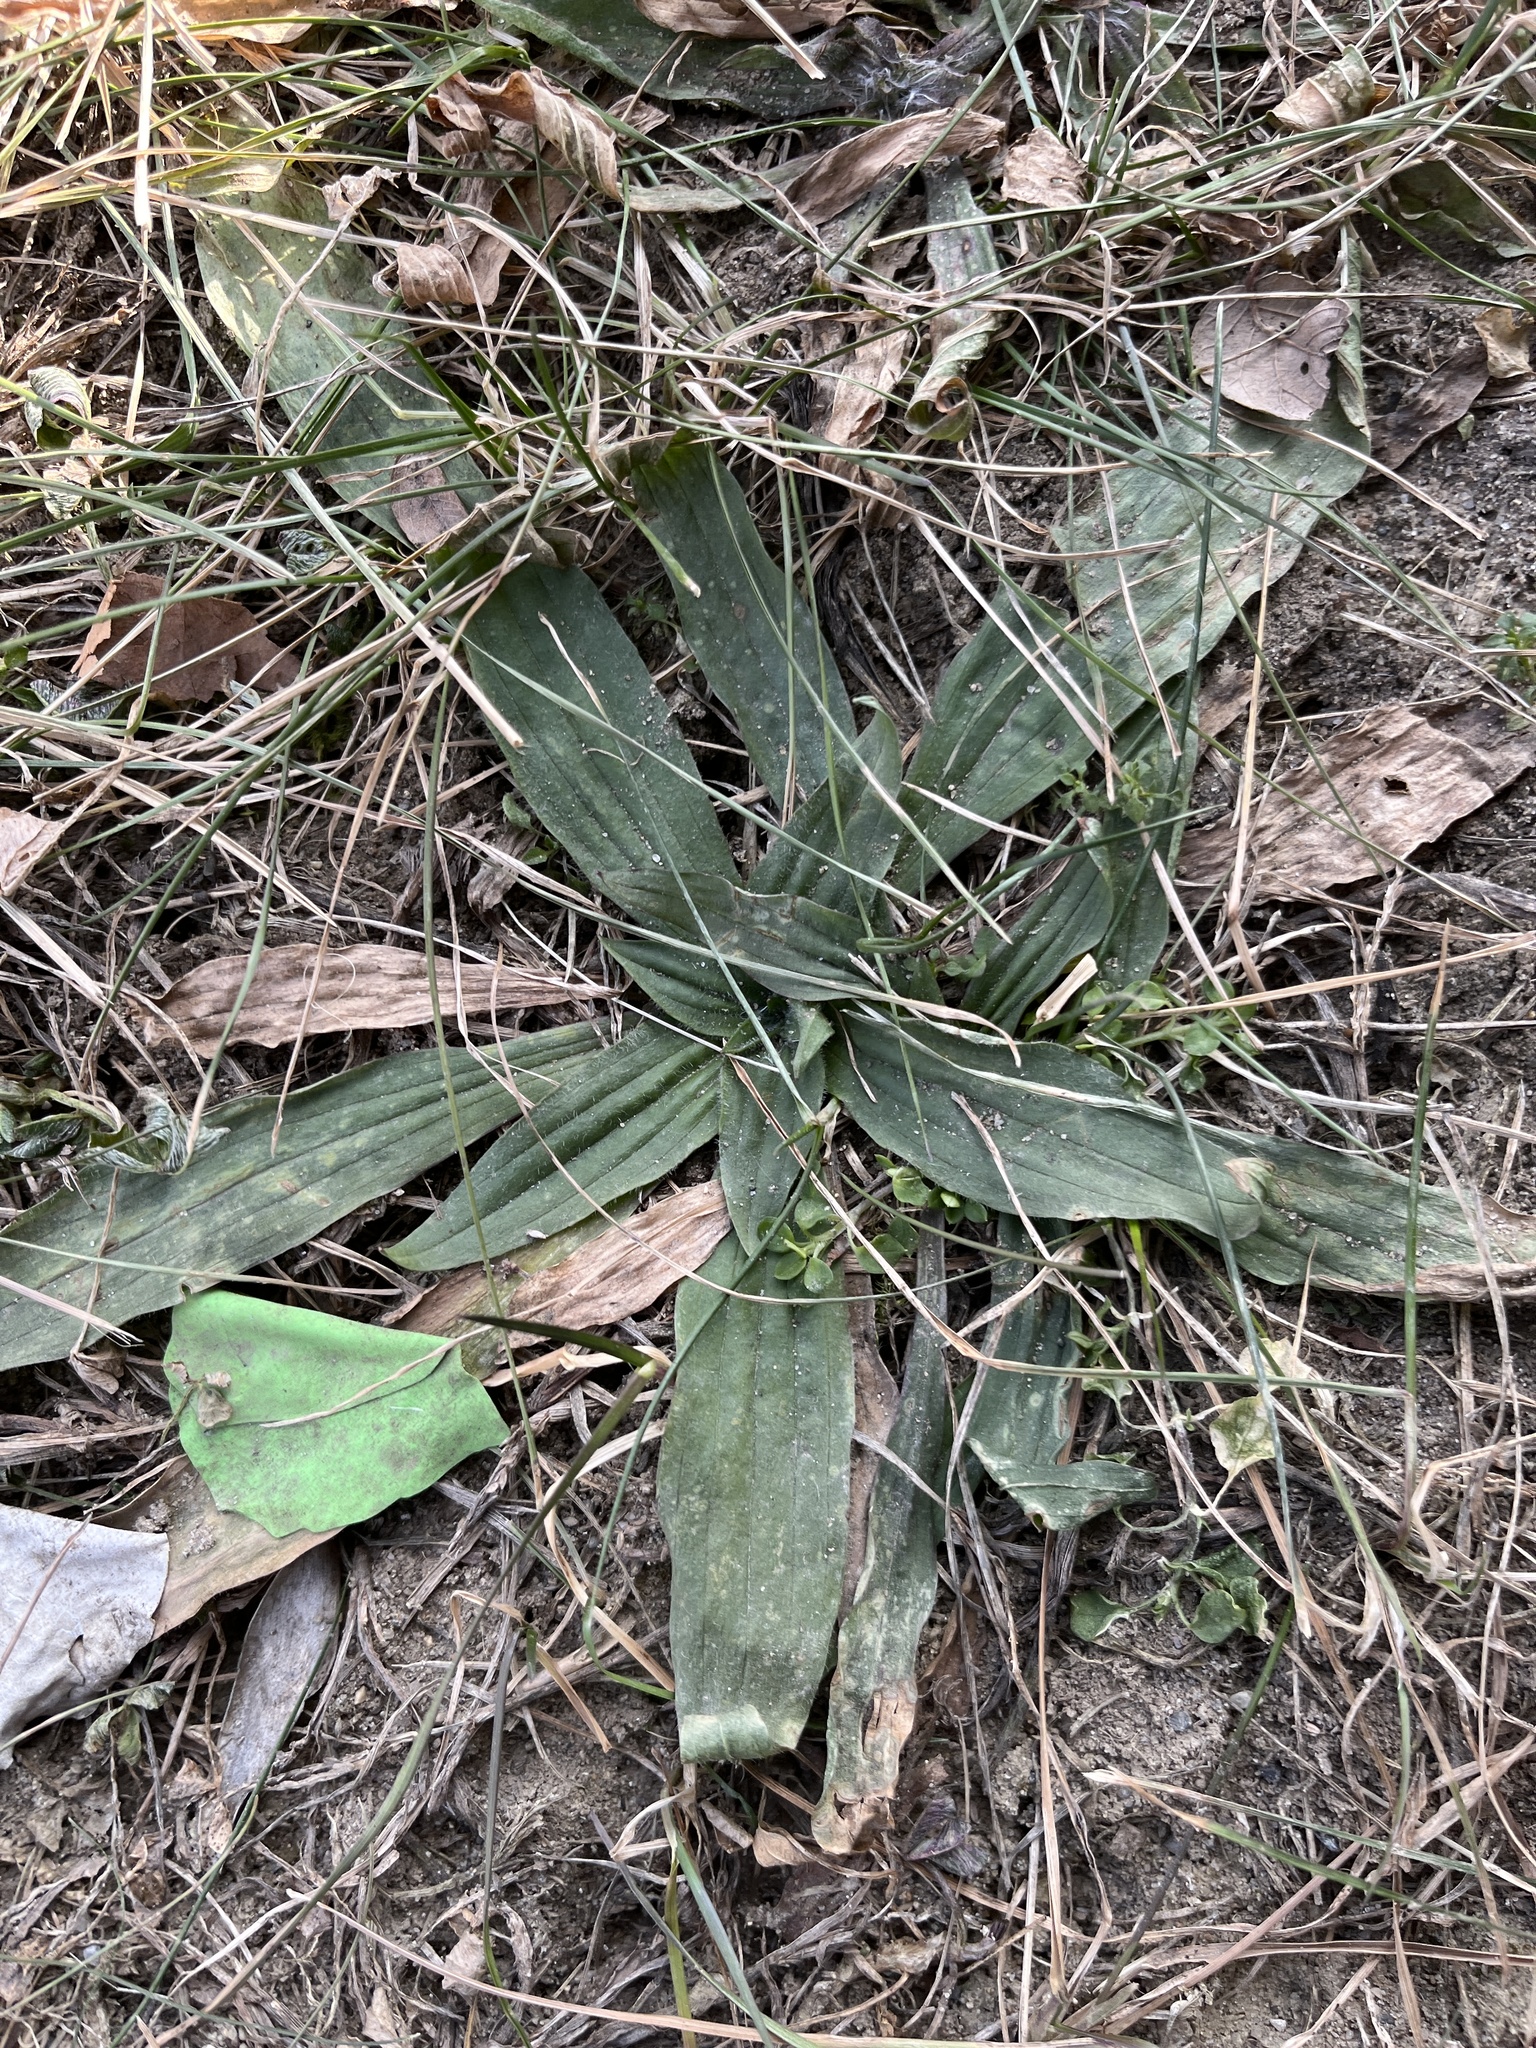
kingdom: Plantae
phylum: Tracheophyta
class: Magnoliopsida
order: Lamiales
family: Plantaginaceae
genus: Plantago
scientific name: Plantago lanceolata
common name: Ribwort plantain
